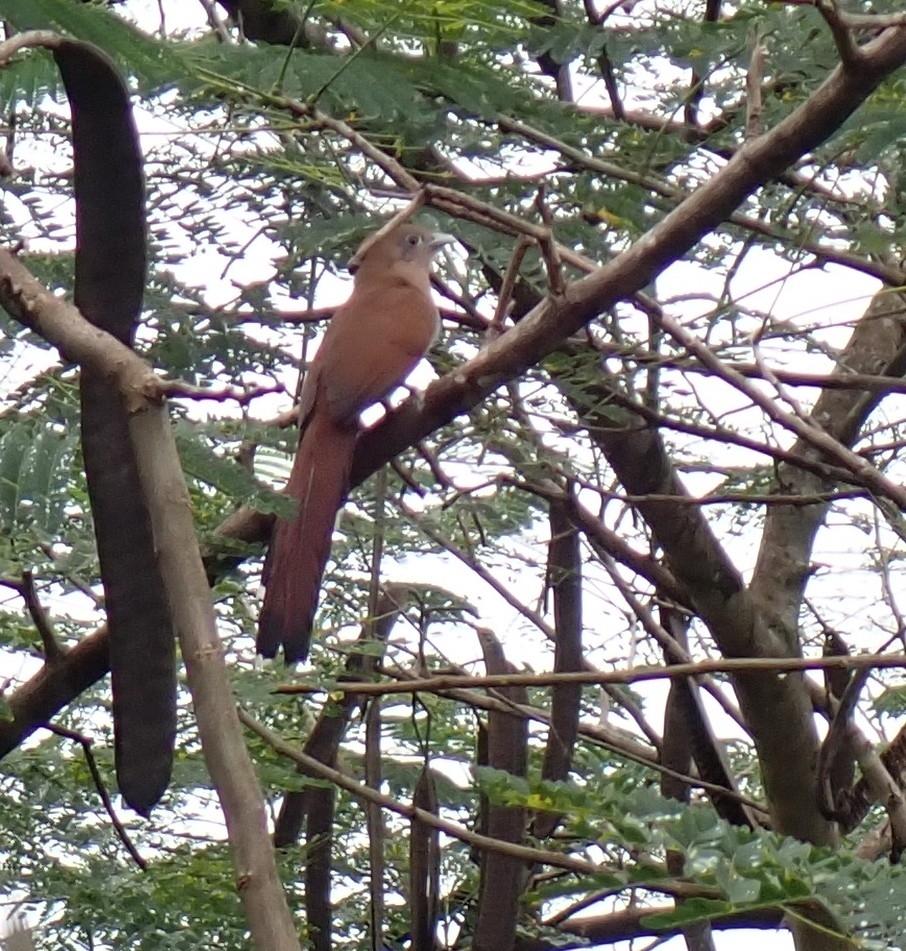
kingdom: Animalia
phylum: Chordata
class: Aves
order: Cuculiformes
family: Cuculidae
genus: Piaya
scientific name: Piaya cayana
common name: Squirrel cuckoo
